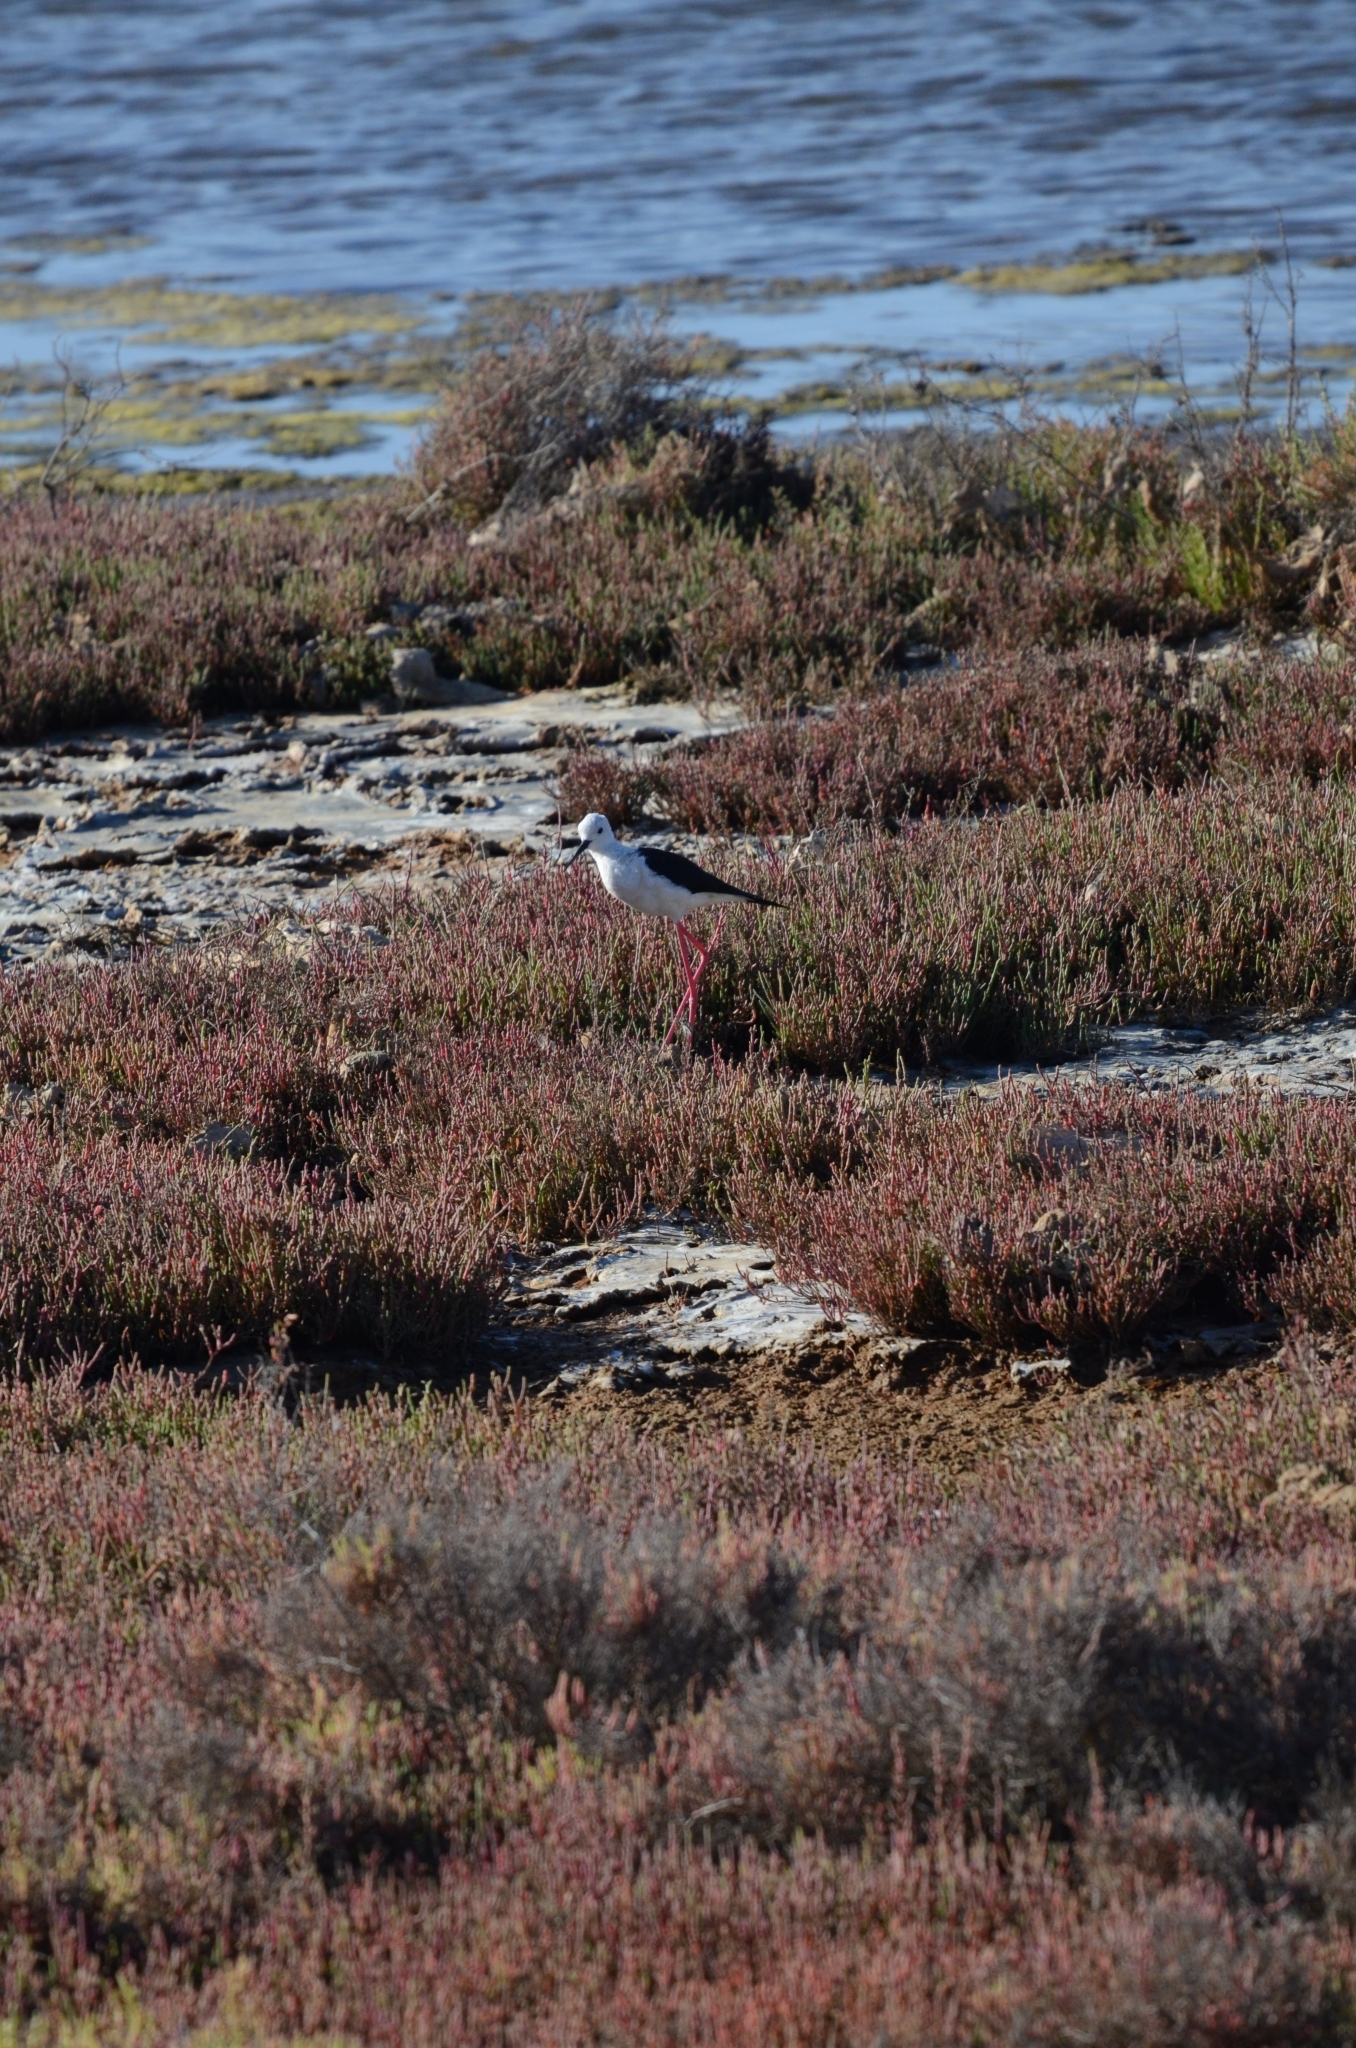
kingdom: Animalia
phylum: Chordata
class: Aves
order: Charadriiformes
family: Recurvirostridae
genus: Himantopus
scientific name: Himantopus himantopus
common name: Black-winged stilt
